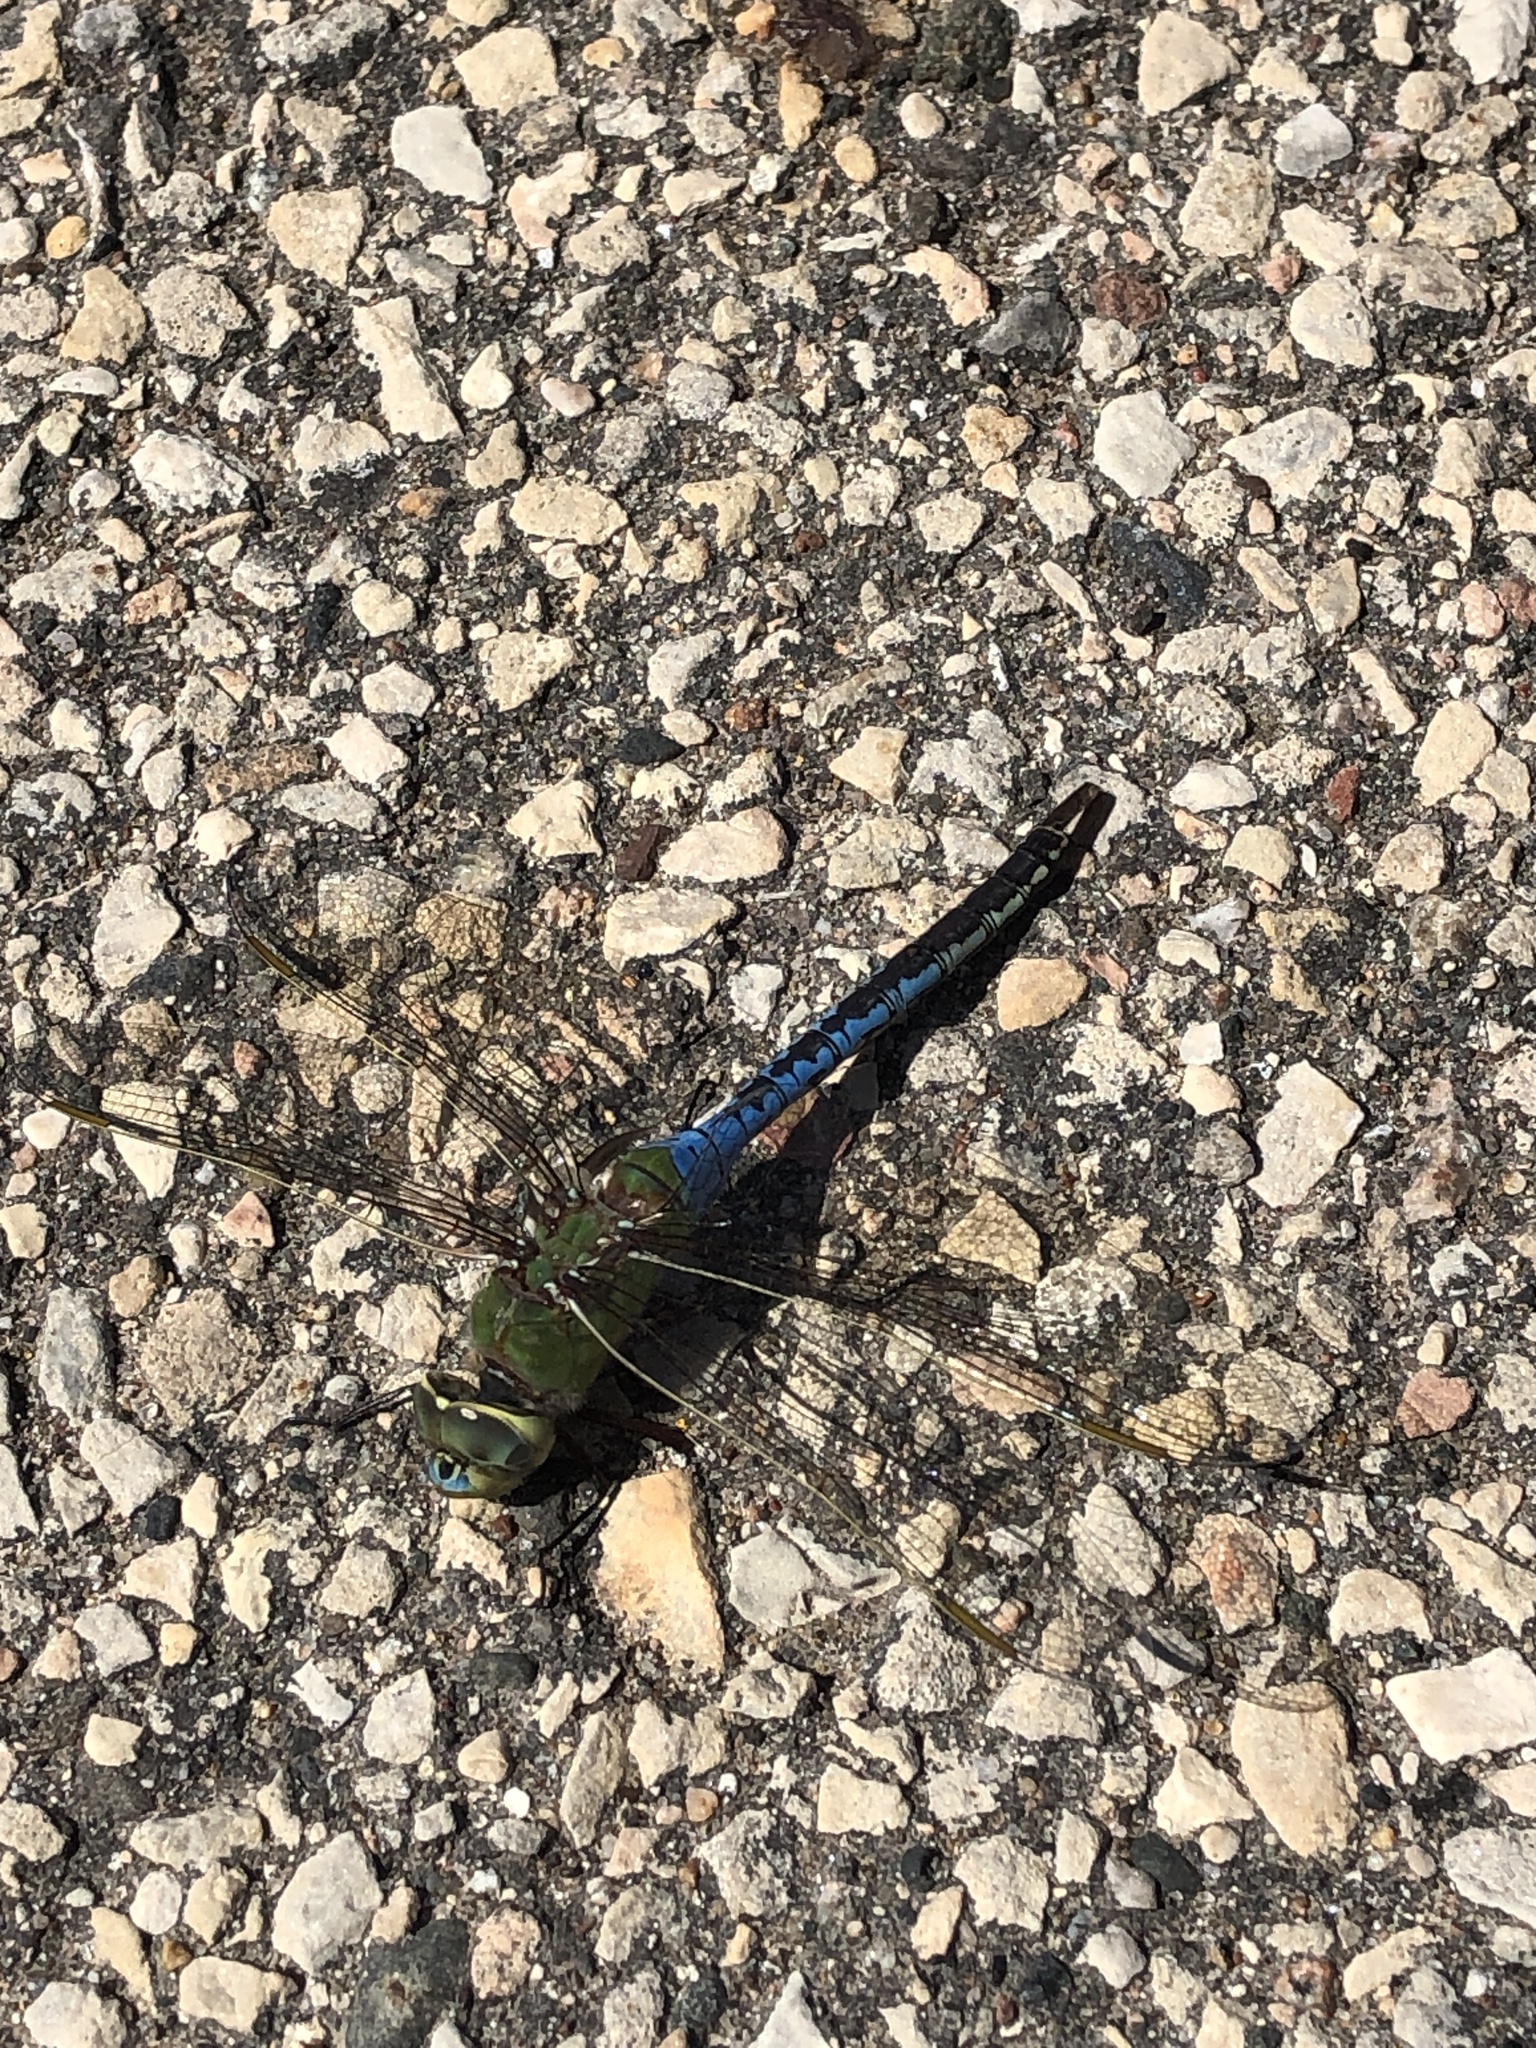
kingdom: Animalia
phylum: Arthropoda
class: Insecta
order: Odonata
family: Aeshnidae
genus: Anax
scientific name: Anax junius
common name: Common green darner
